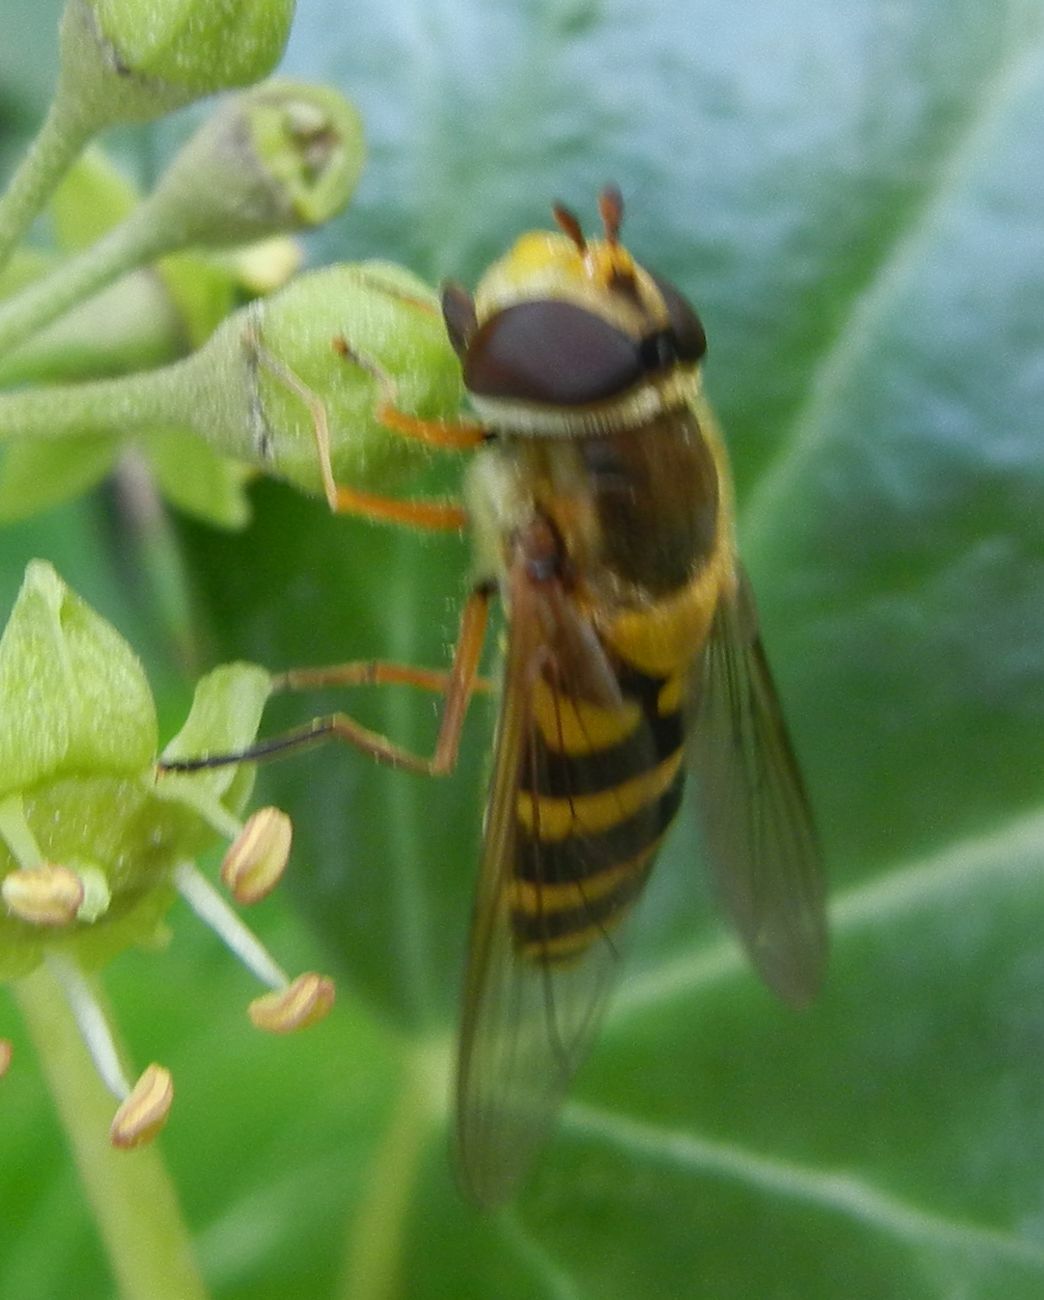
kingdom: Animalia
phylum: Arthropoda
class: Insecta
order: Diptera
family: Syrphidae
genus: Syrphus
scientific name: Syrphus ribesii
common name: Common flower fly
